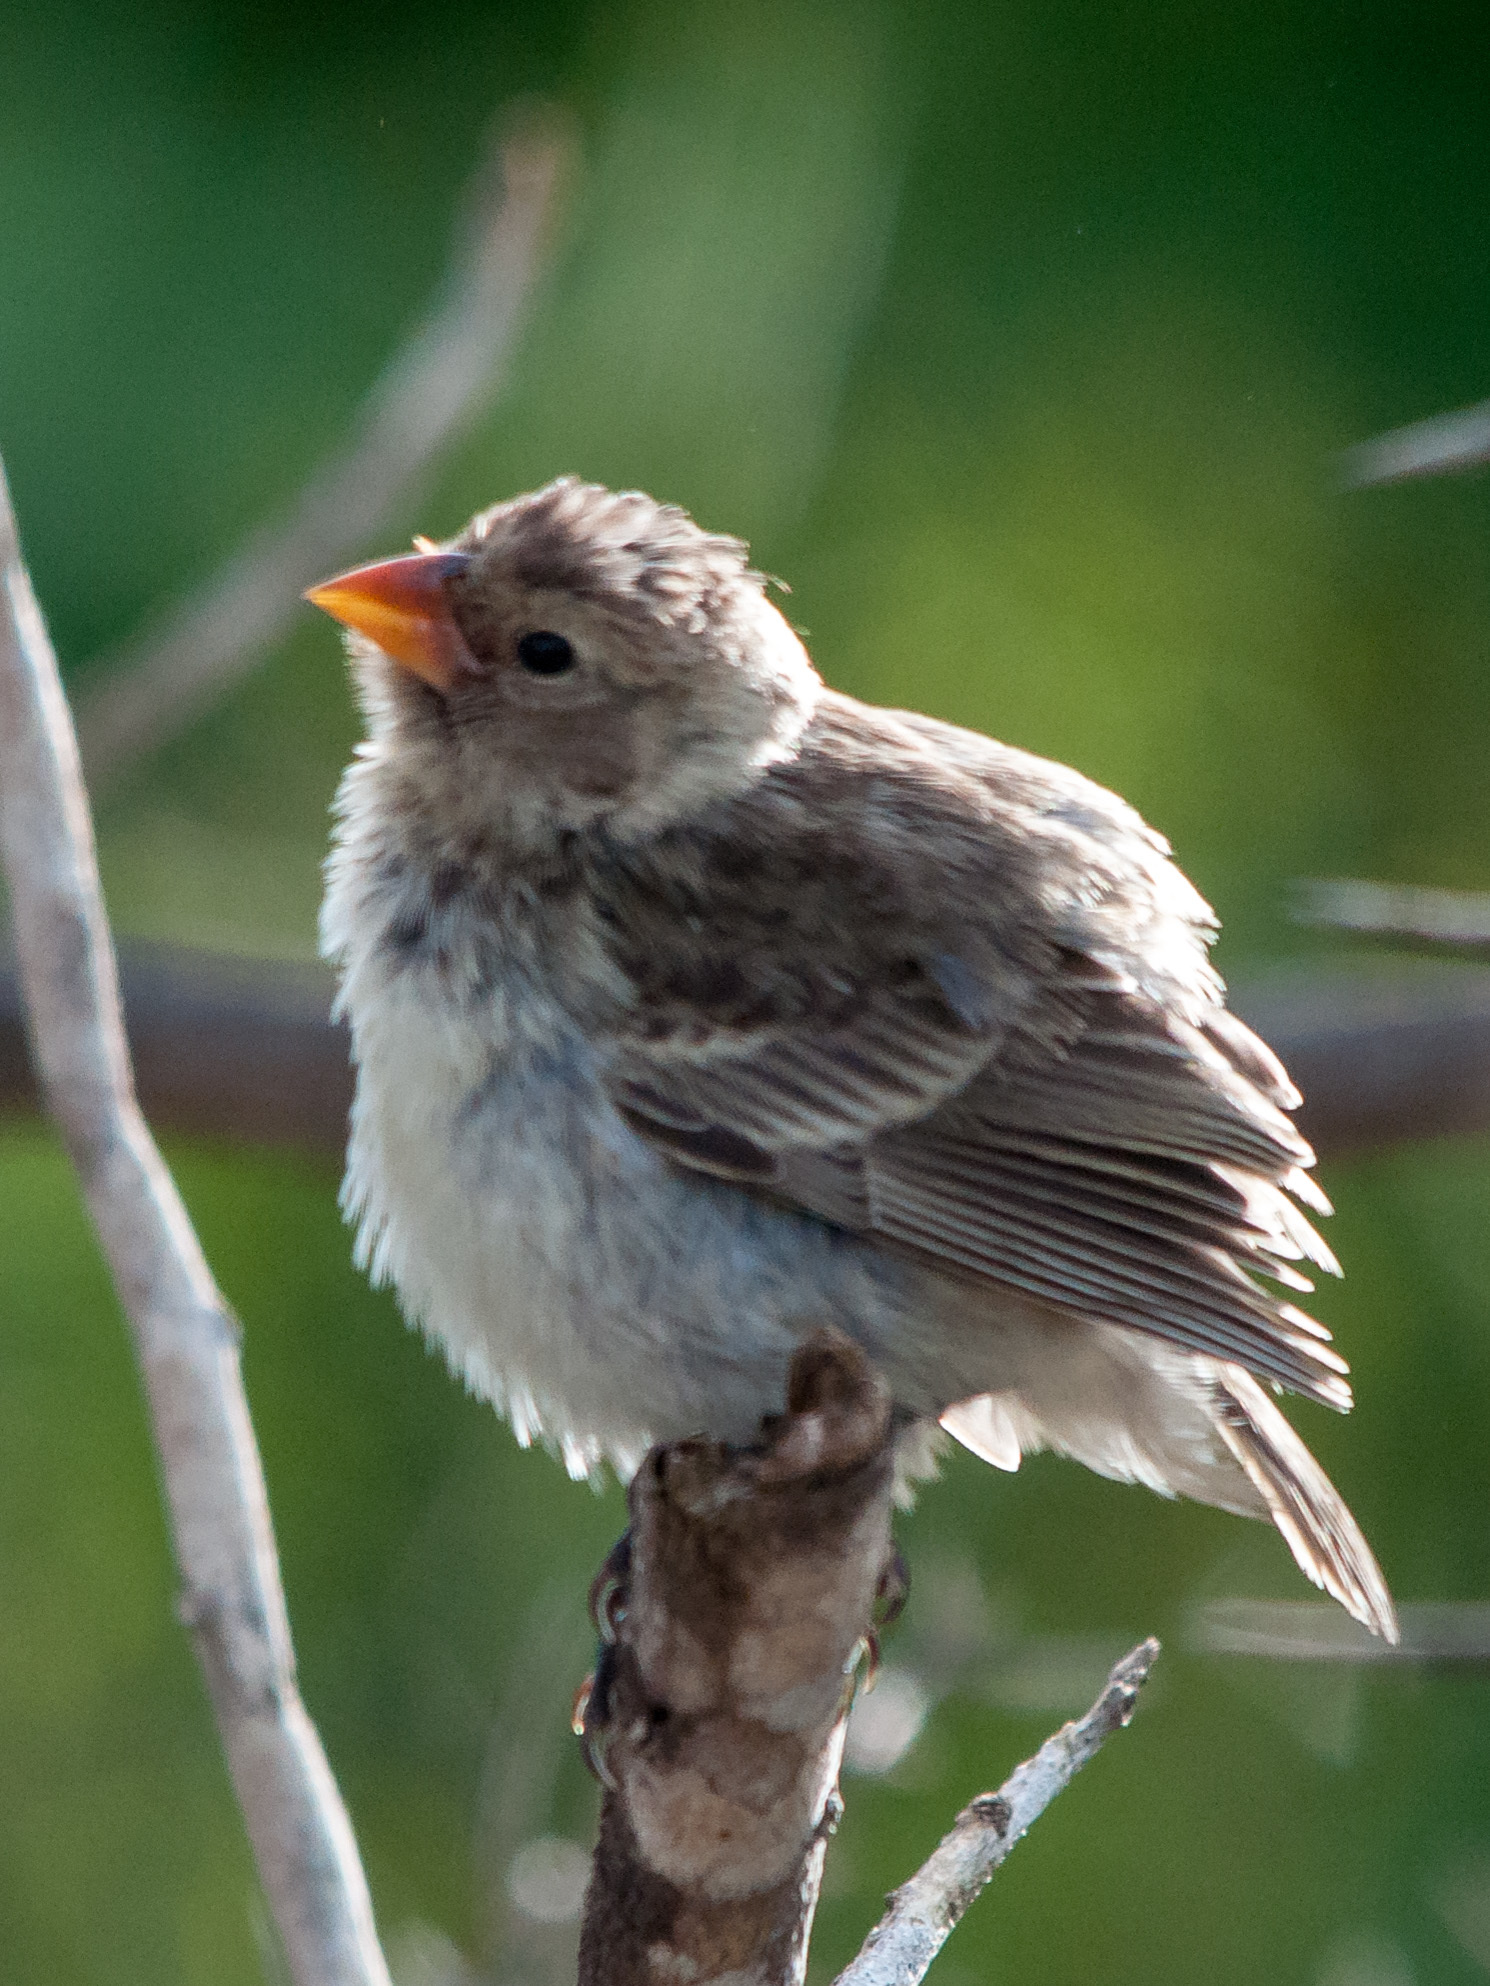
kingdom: Animalia
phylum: Chordata
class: Aves
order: Passeriformes
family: Thraupidae
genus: Geospiza
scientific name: Geospiza fuliginosa
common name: Small ground finch
